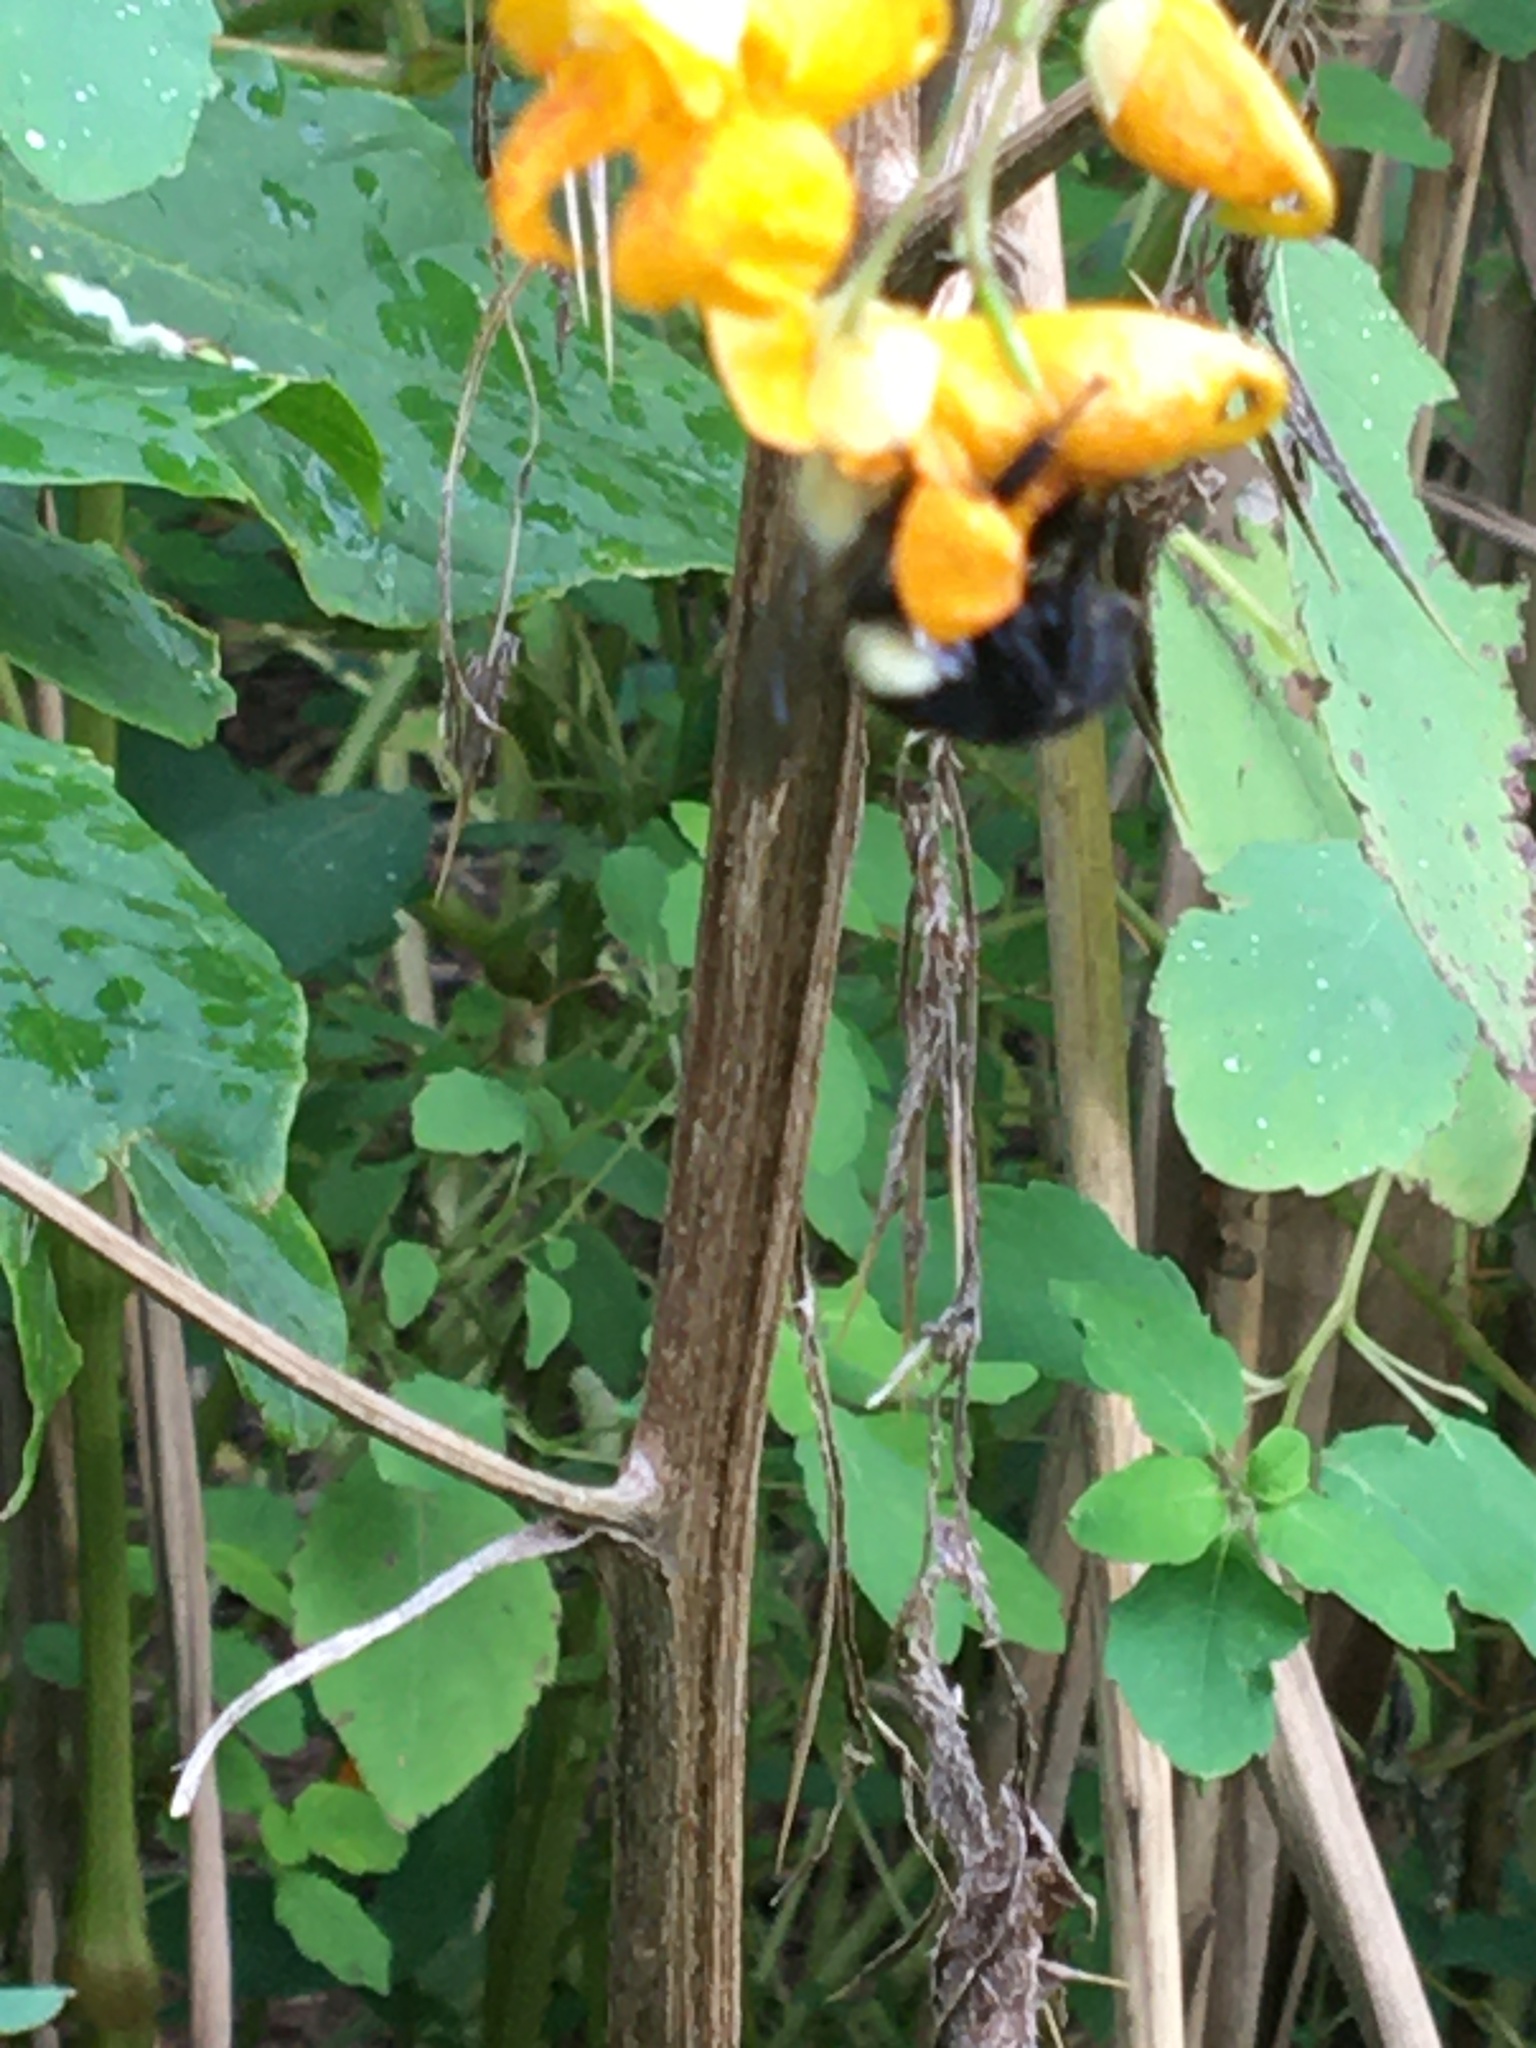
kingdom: Animalia
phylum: Arthropoda
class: Insecta
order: Hymenoptera
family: Apidae
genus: Bombus
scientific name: Bombus impatiens
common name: Common eastern bumble bee
